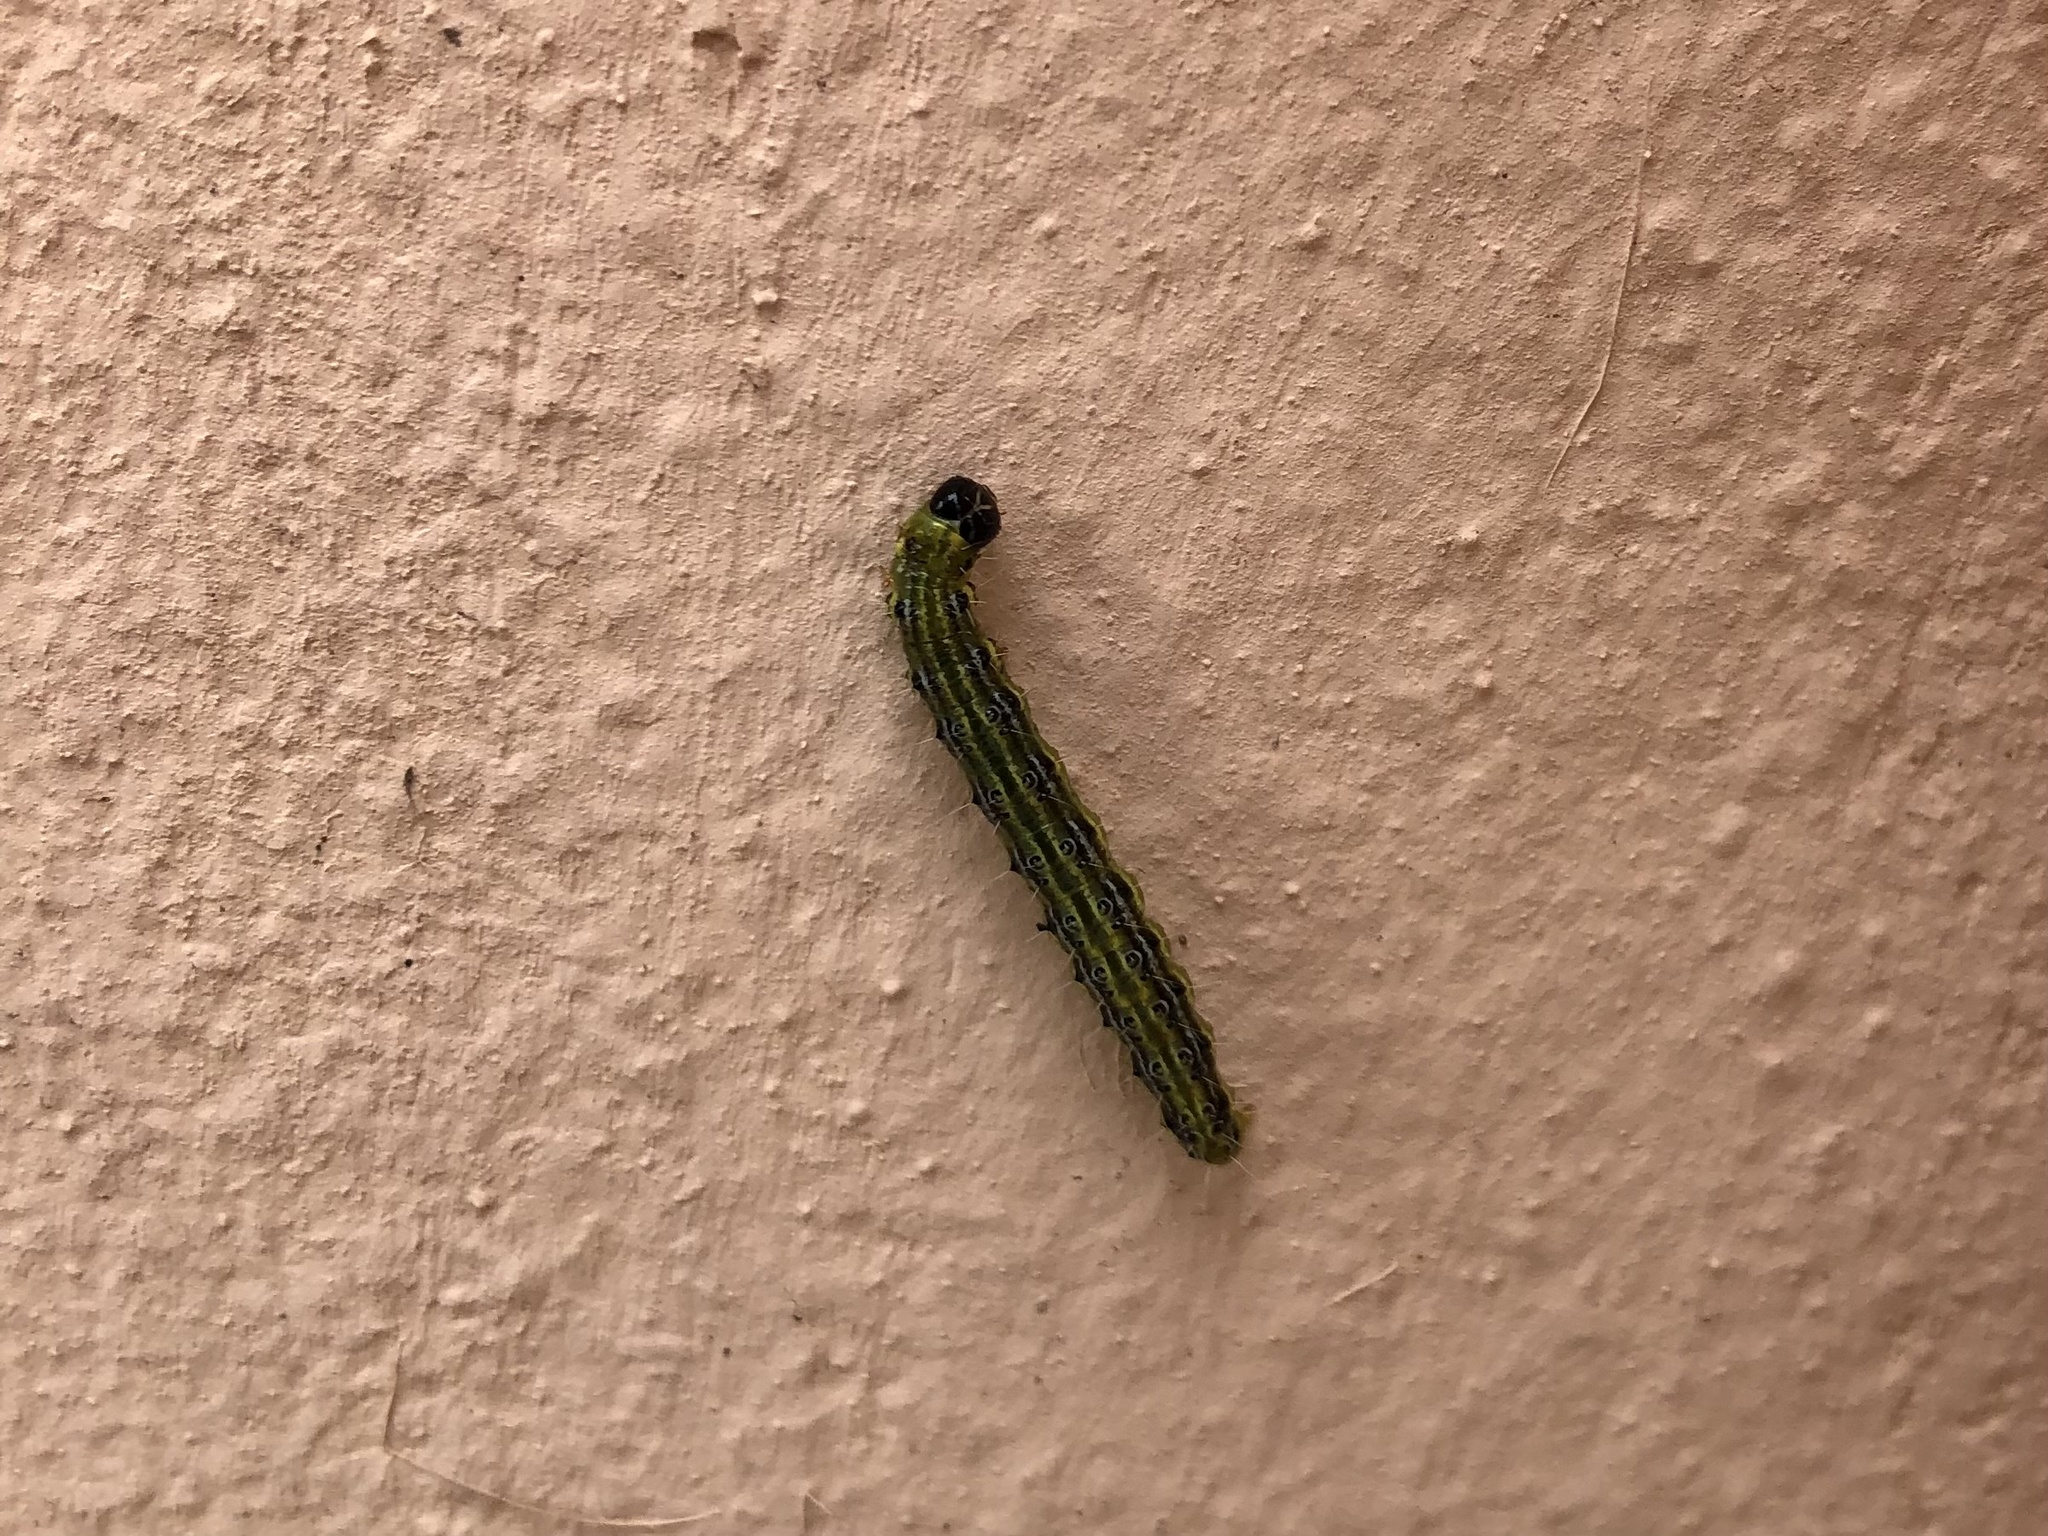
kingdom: Animalia
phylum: Arthropoda
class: Insecta
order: Lepidoptera
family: Crambidae
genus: Cydalima
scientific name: Cydalima perspectalis
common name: Box tree moth
